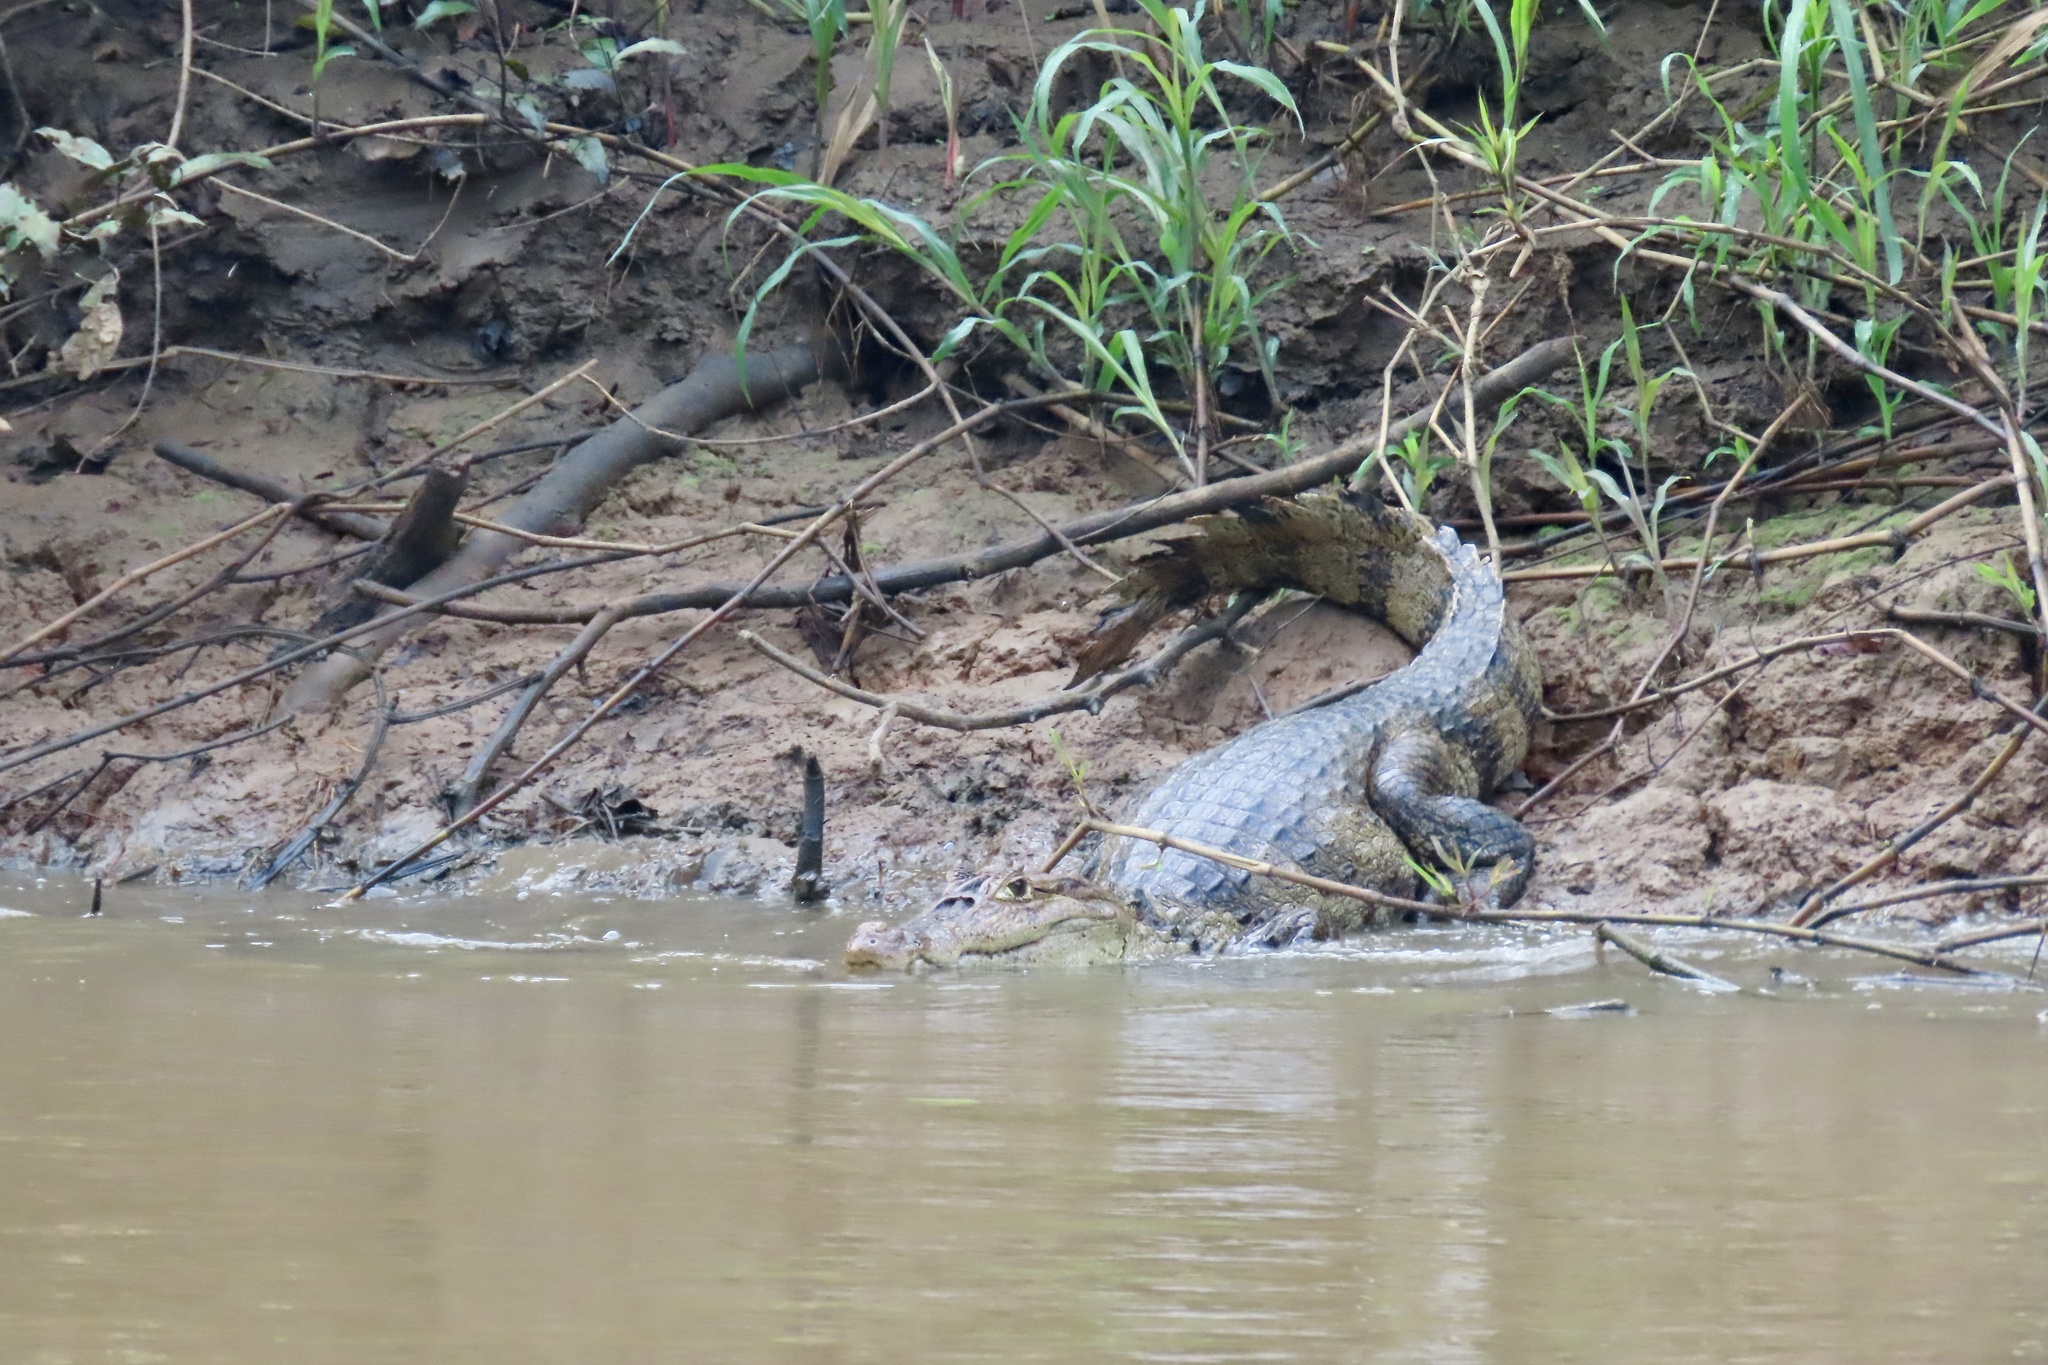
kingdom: Animalia
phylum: Chordata
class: Crocodylia
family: Alligatoridae
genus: Caiman
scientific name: Caiman crocodilus
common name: Common caiman
